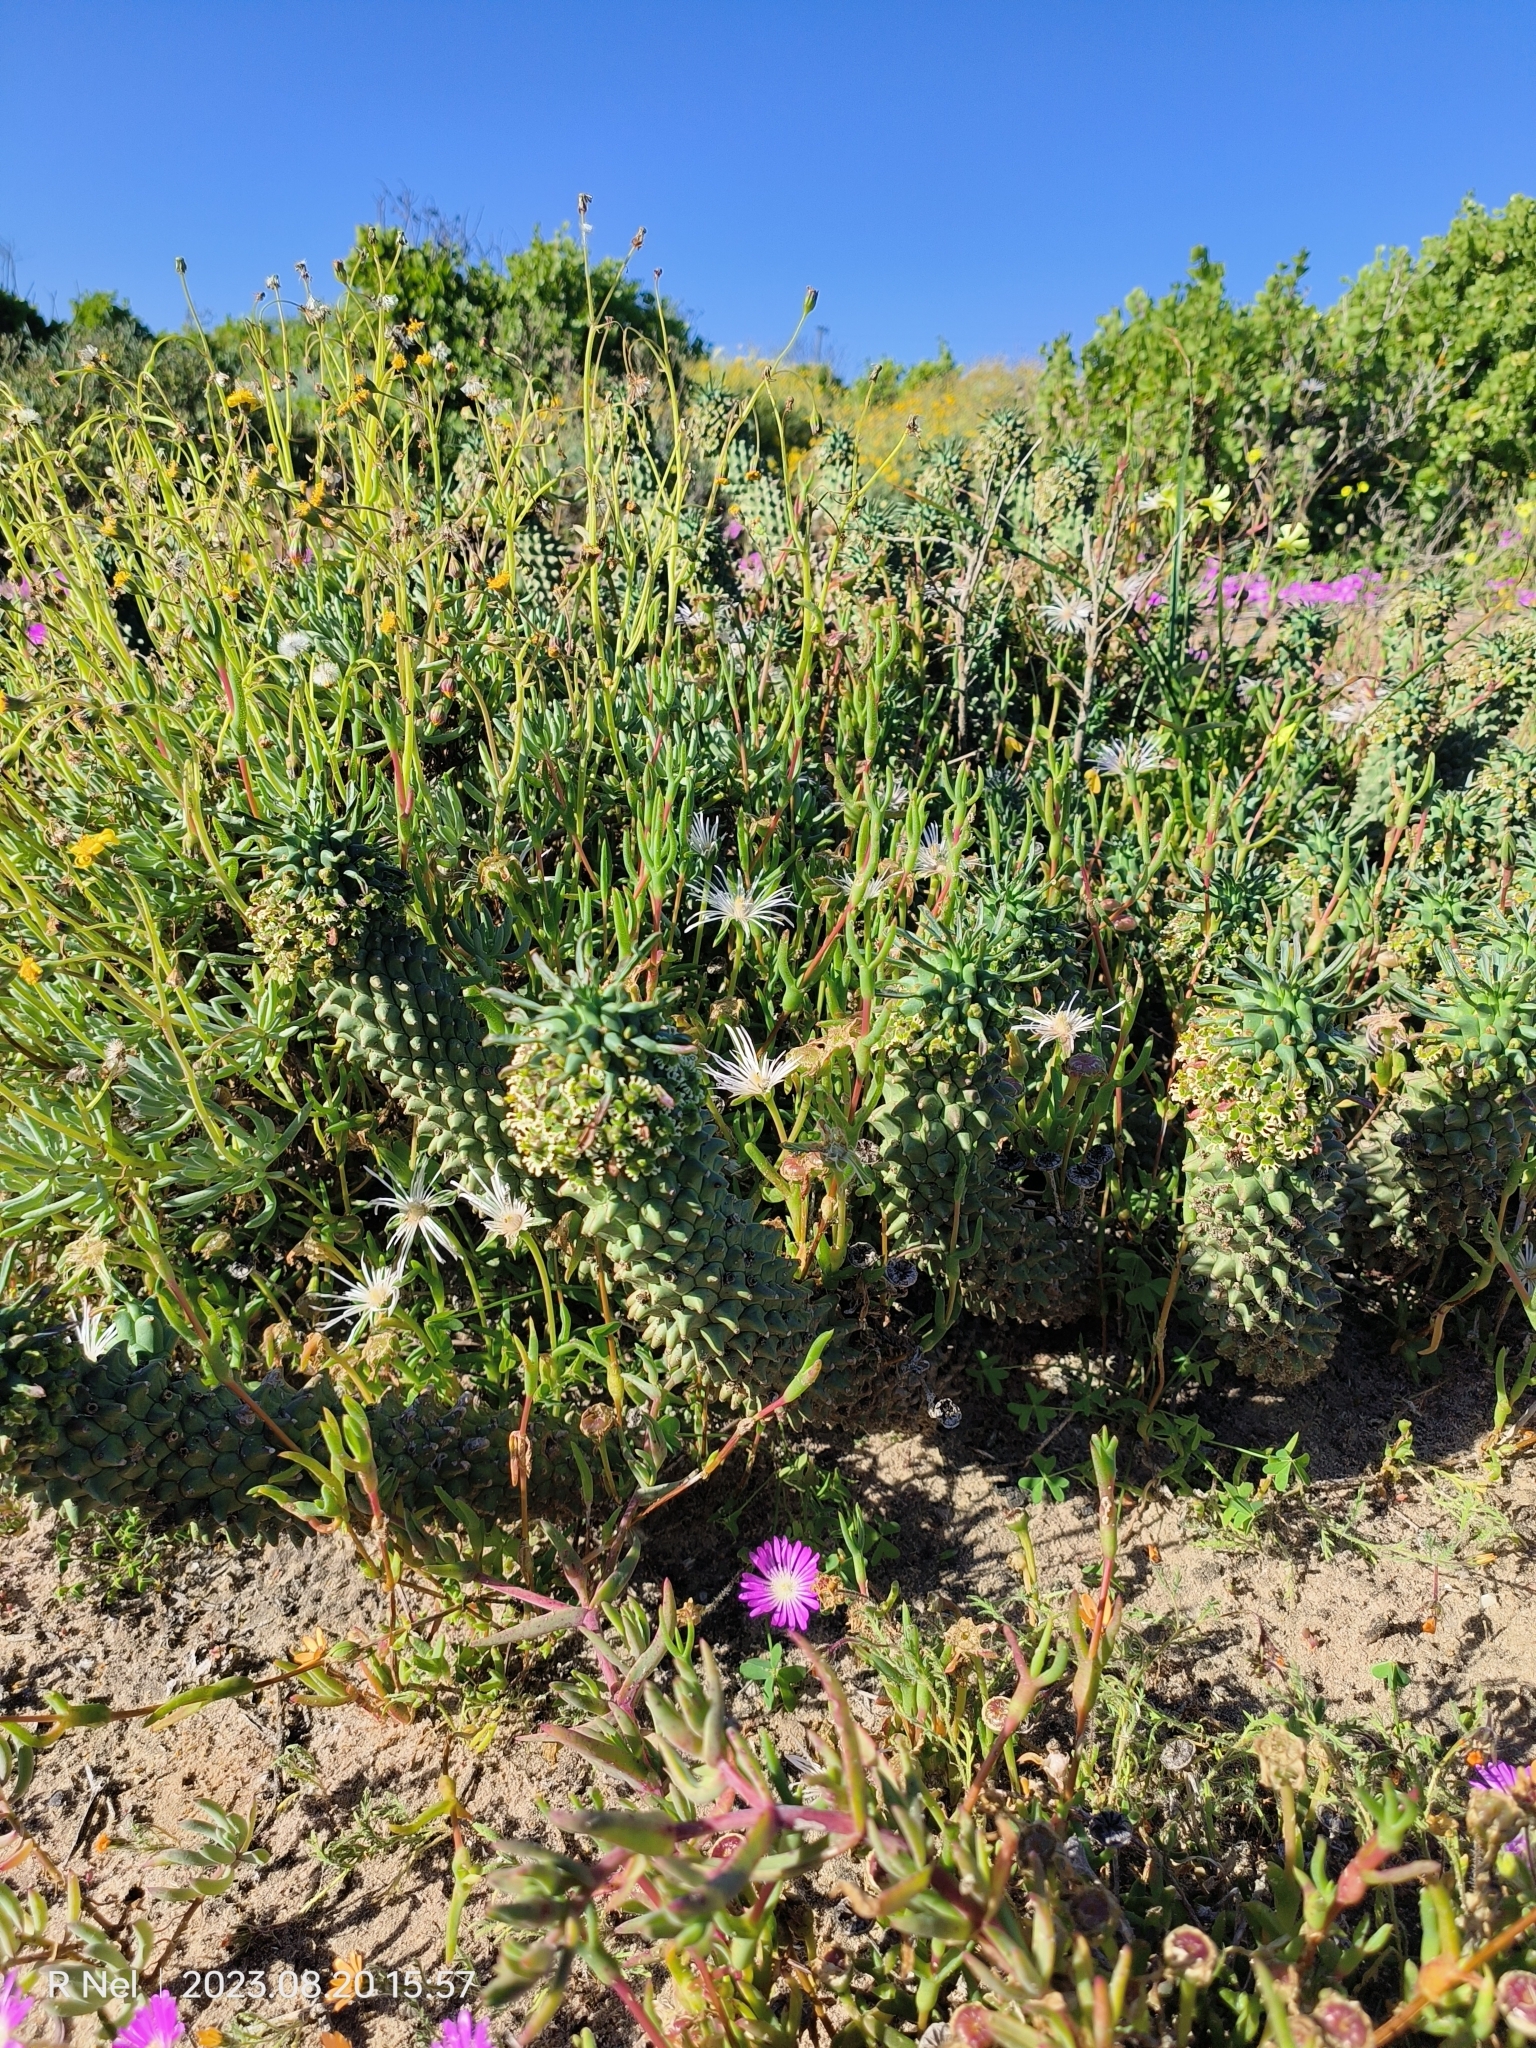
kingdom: Plantae
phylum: Tracheophyta
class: Magnoliopsida
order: Malpighiales
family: Euphorbiaceae
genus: Euphorbia
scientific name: Euphorbia caput-medusae
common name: Medusa's-head
